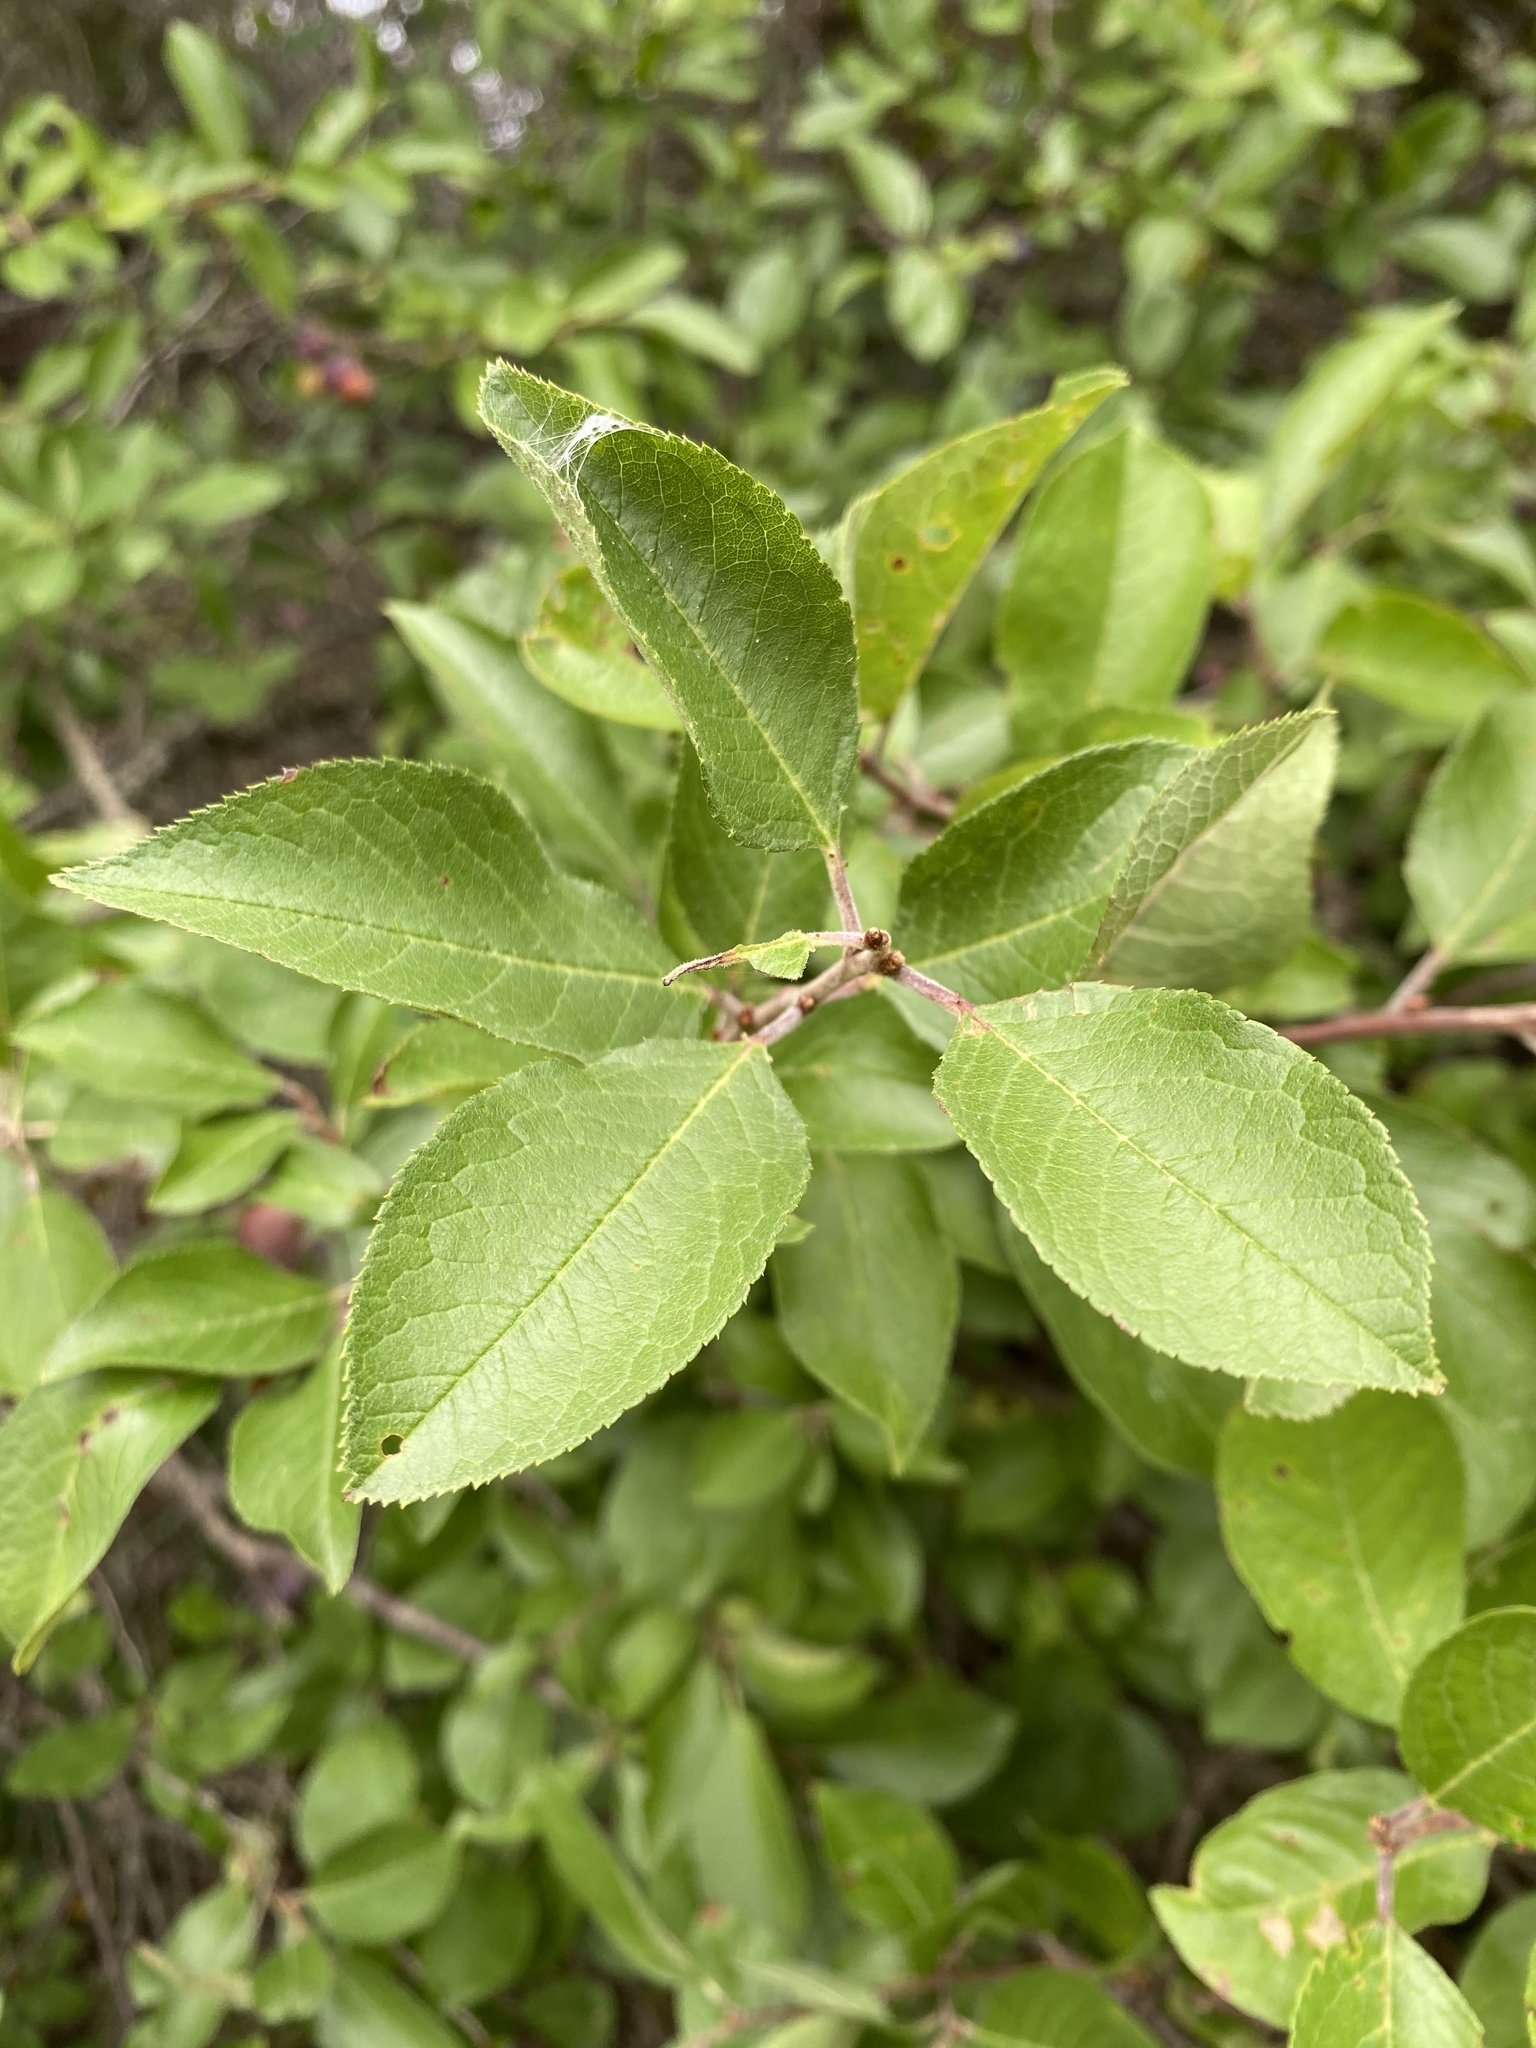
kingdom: Plantae
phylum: Tracheophyta
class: Magnoliopsida
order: Rosales
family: Rosaceae
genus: Prunus
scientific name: Prunus maritima
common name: Beach plum
